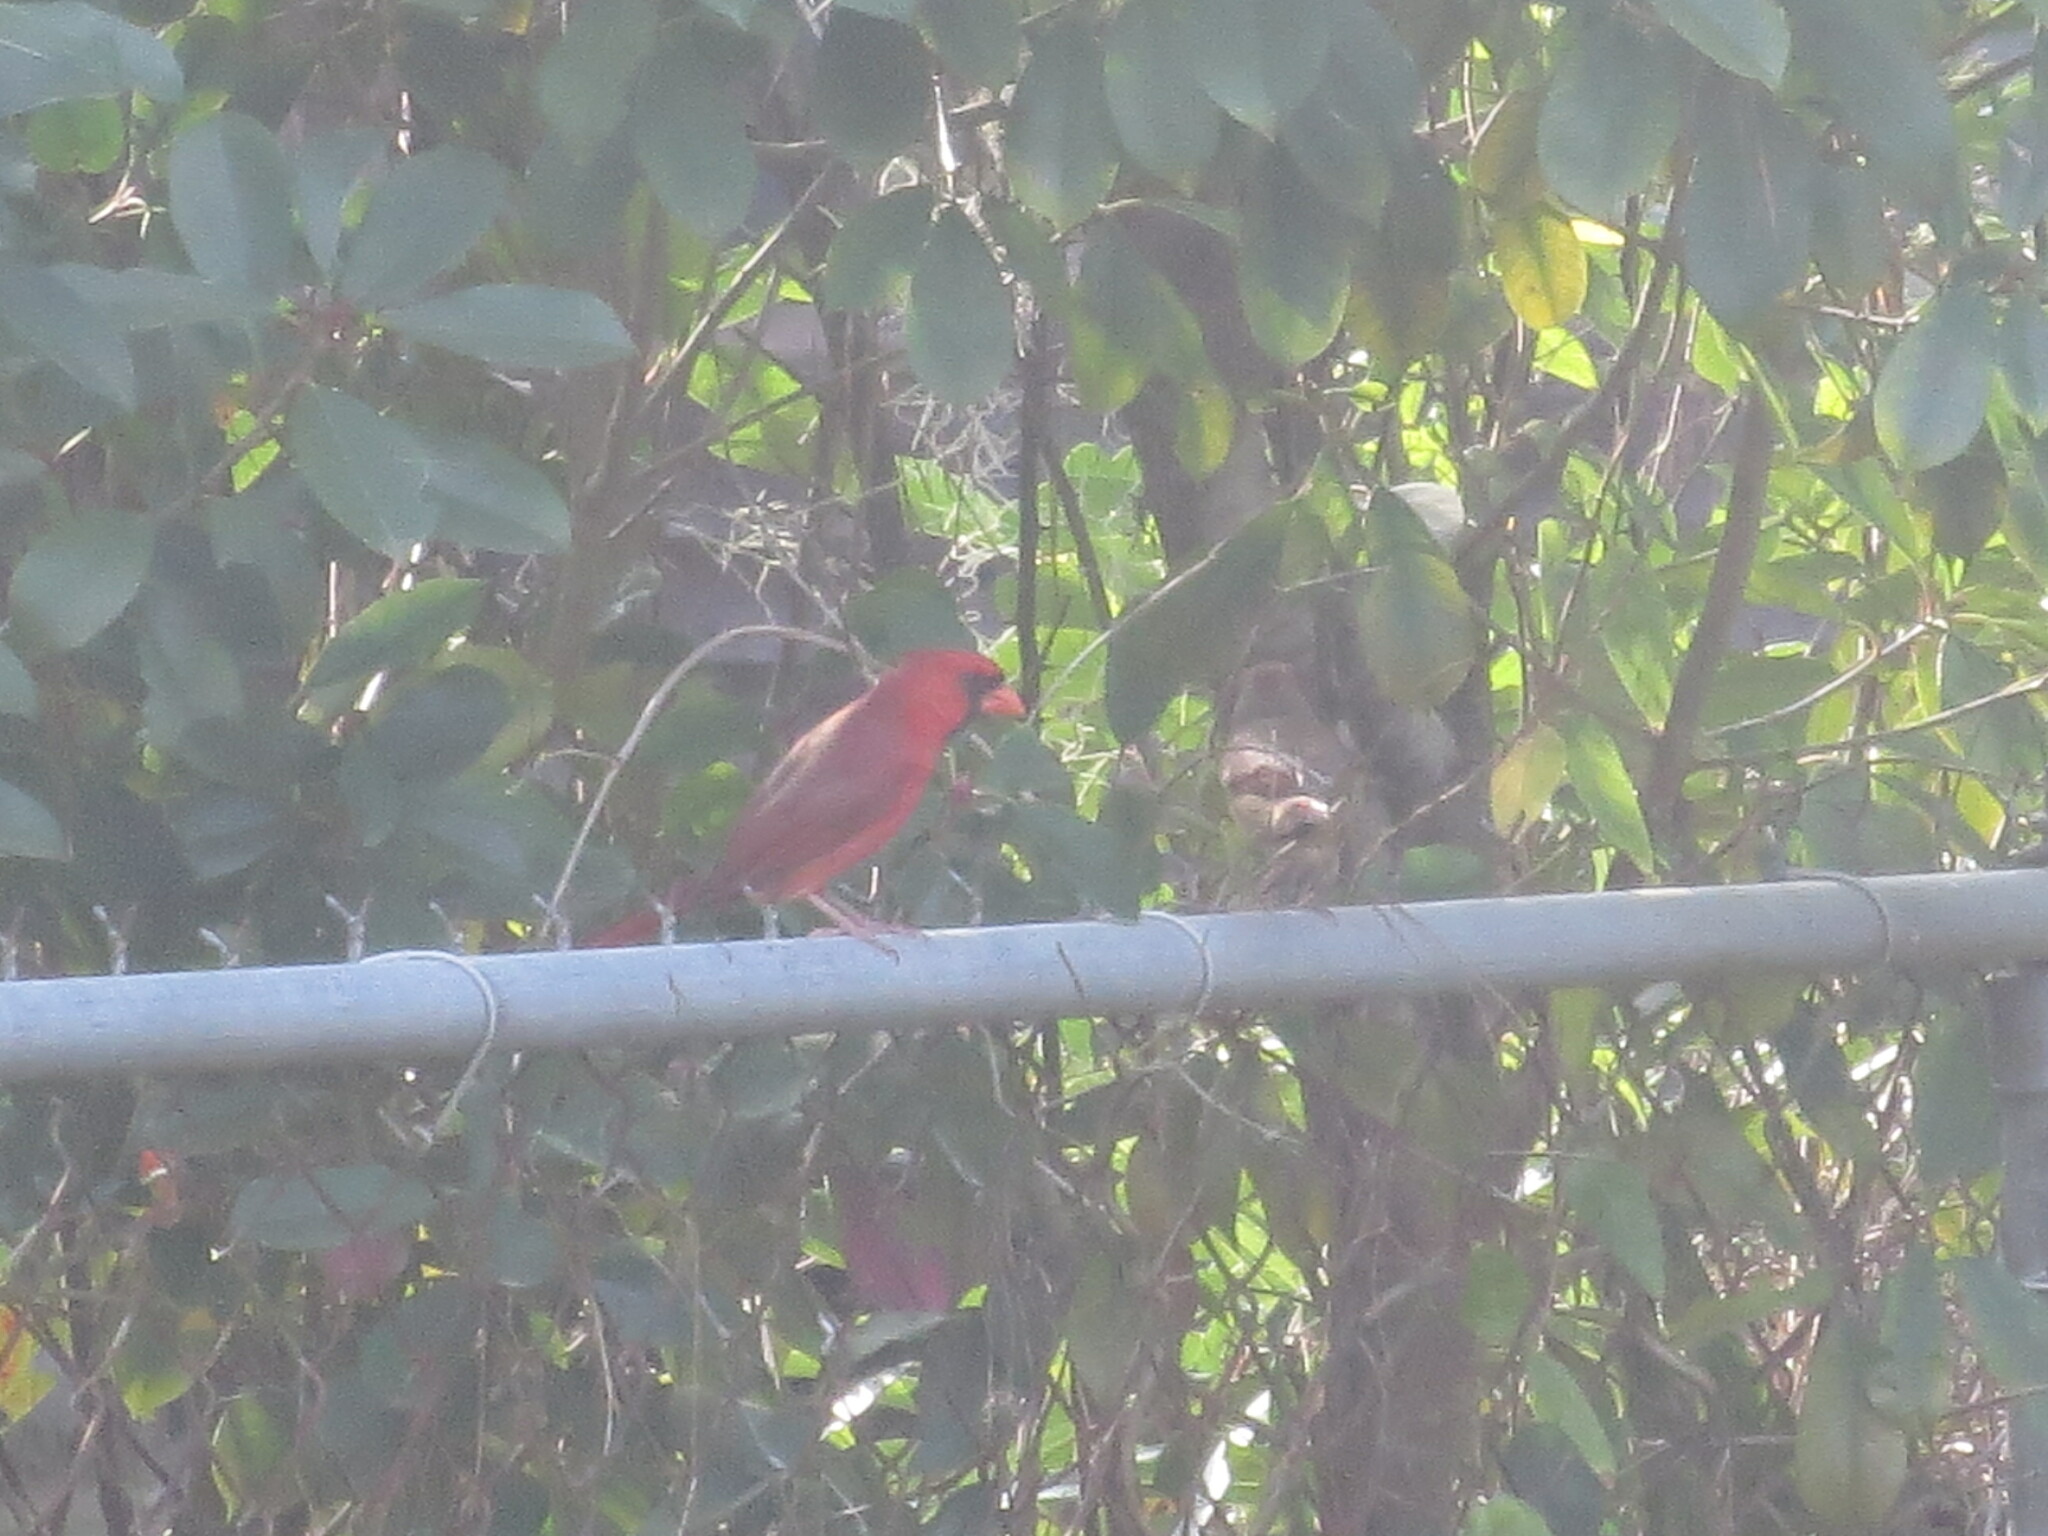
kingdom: Animalia
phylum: Chordata
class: Aves
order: Passeriformes
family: Cardinalidae
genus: Cardinalis
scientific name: Cardinalis cardinalis
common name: Northern cardinal
